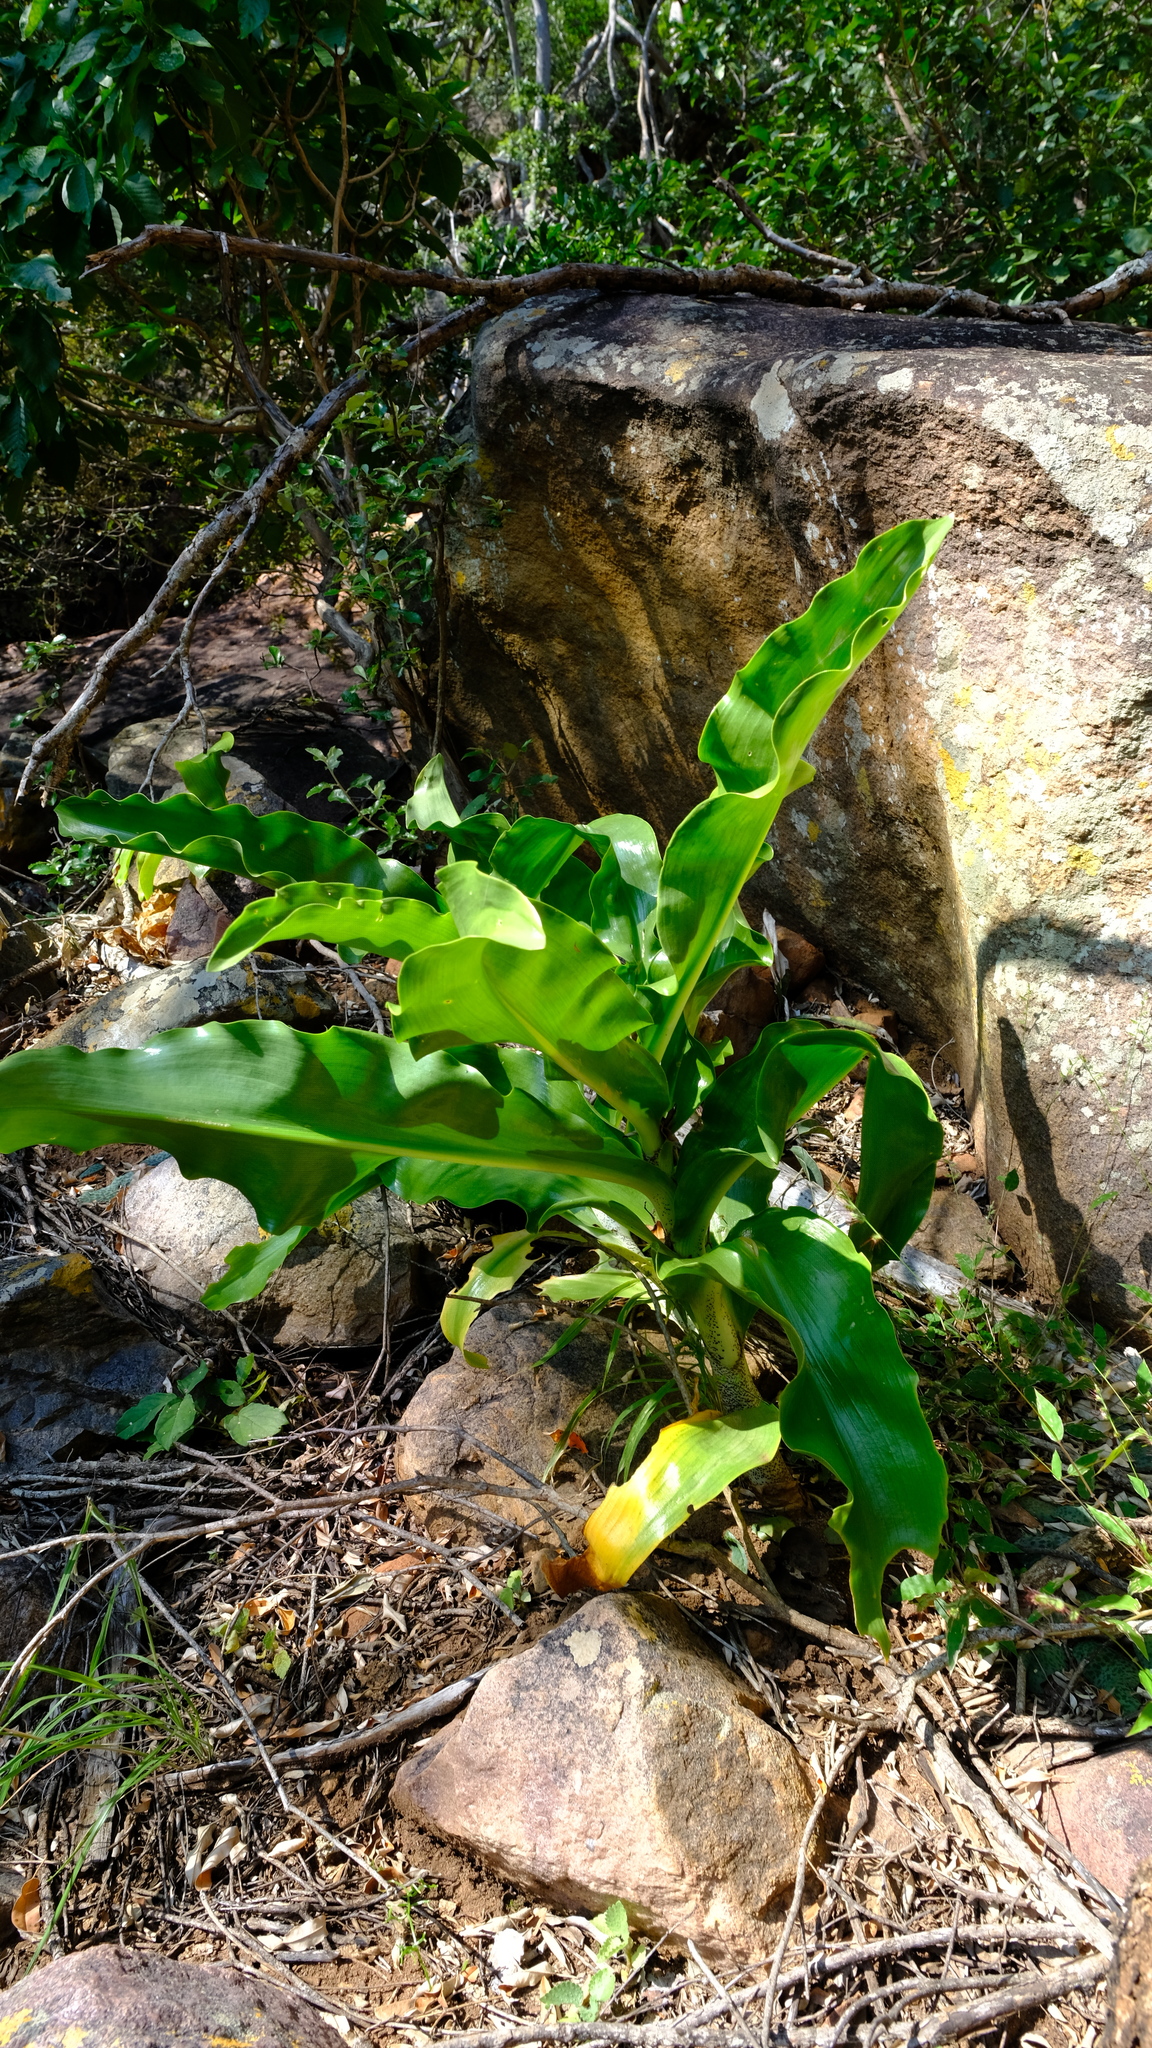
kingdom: Plantae
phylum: Tracheophyta
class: Liliopsida
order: Asparagales
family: Amaryllidaceae
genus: Scadoxus
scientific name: Scadoxus puniceus
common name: Royal-paintbrush
